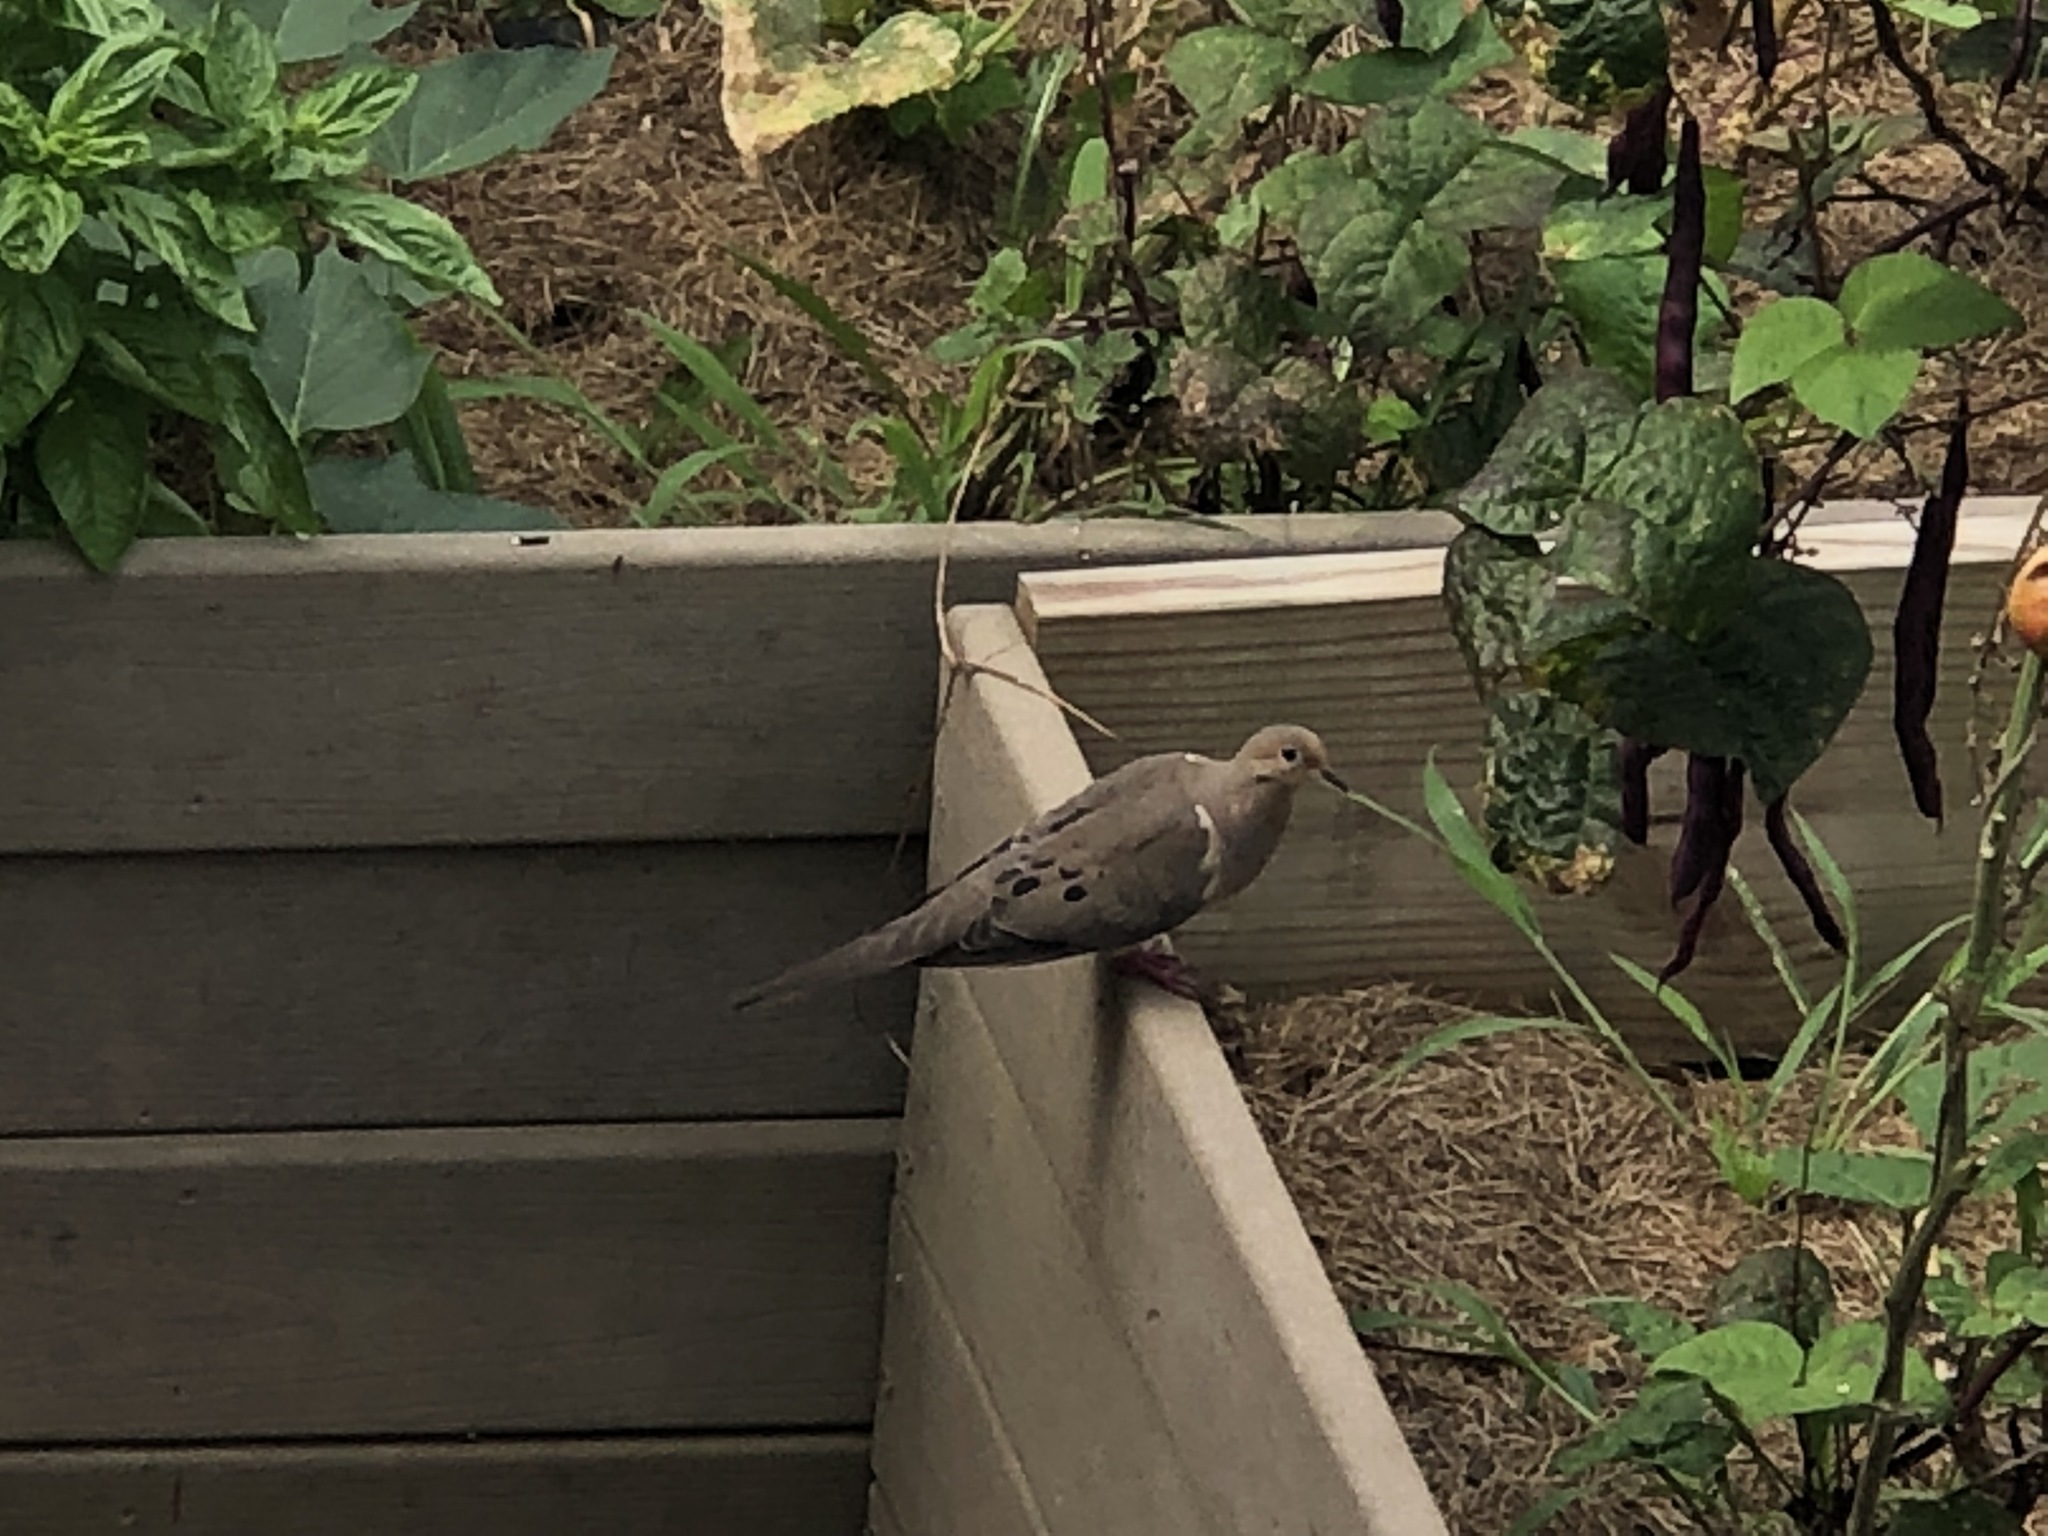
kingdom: Animalia
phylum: Chordata
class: Aves
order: Columbiformes
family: Columbidae
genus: Zenaida
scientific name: Zenaida macroura
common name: Mourning dove
